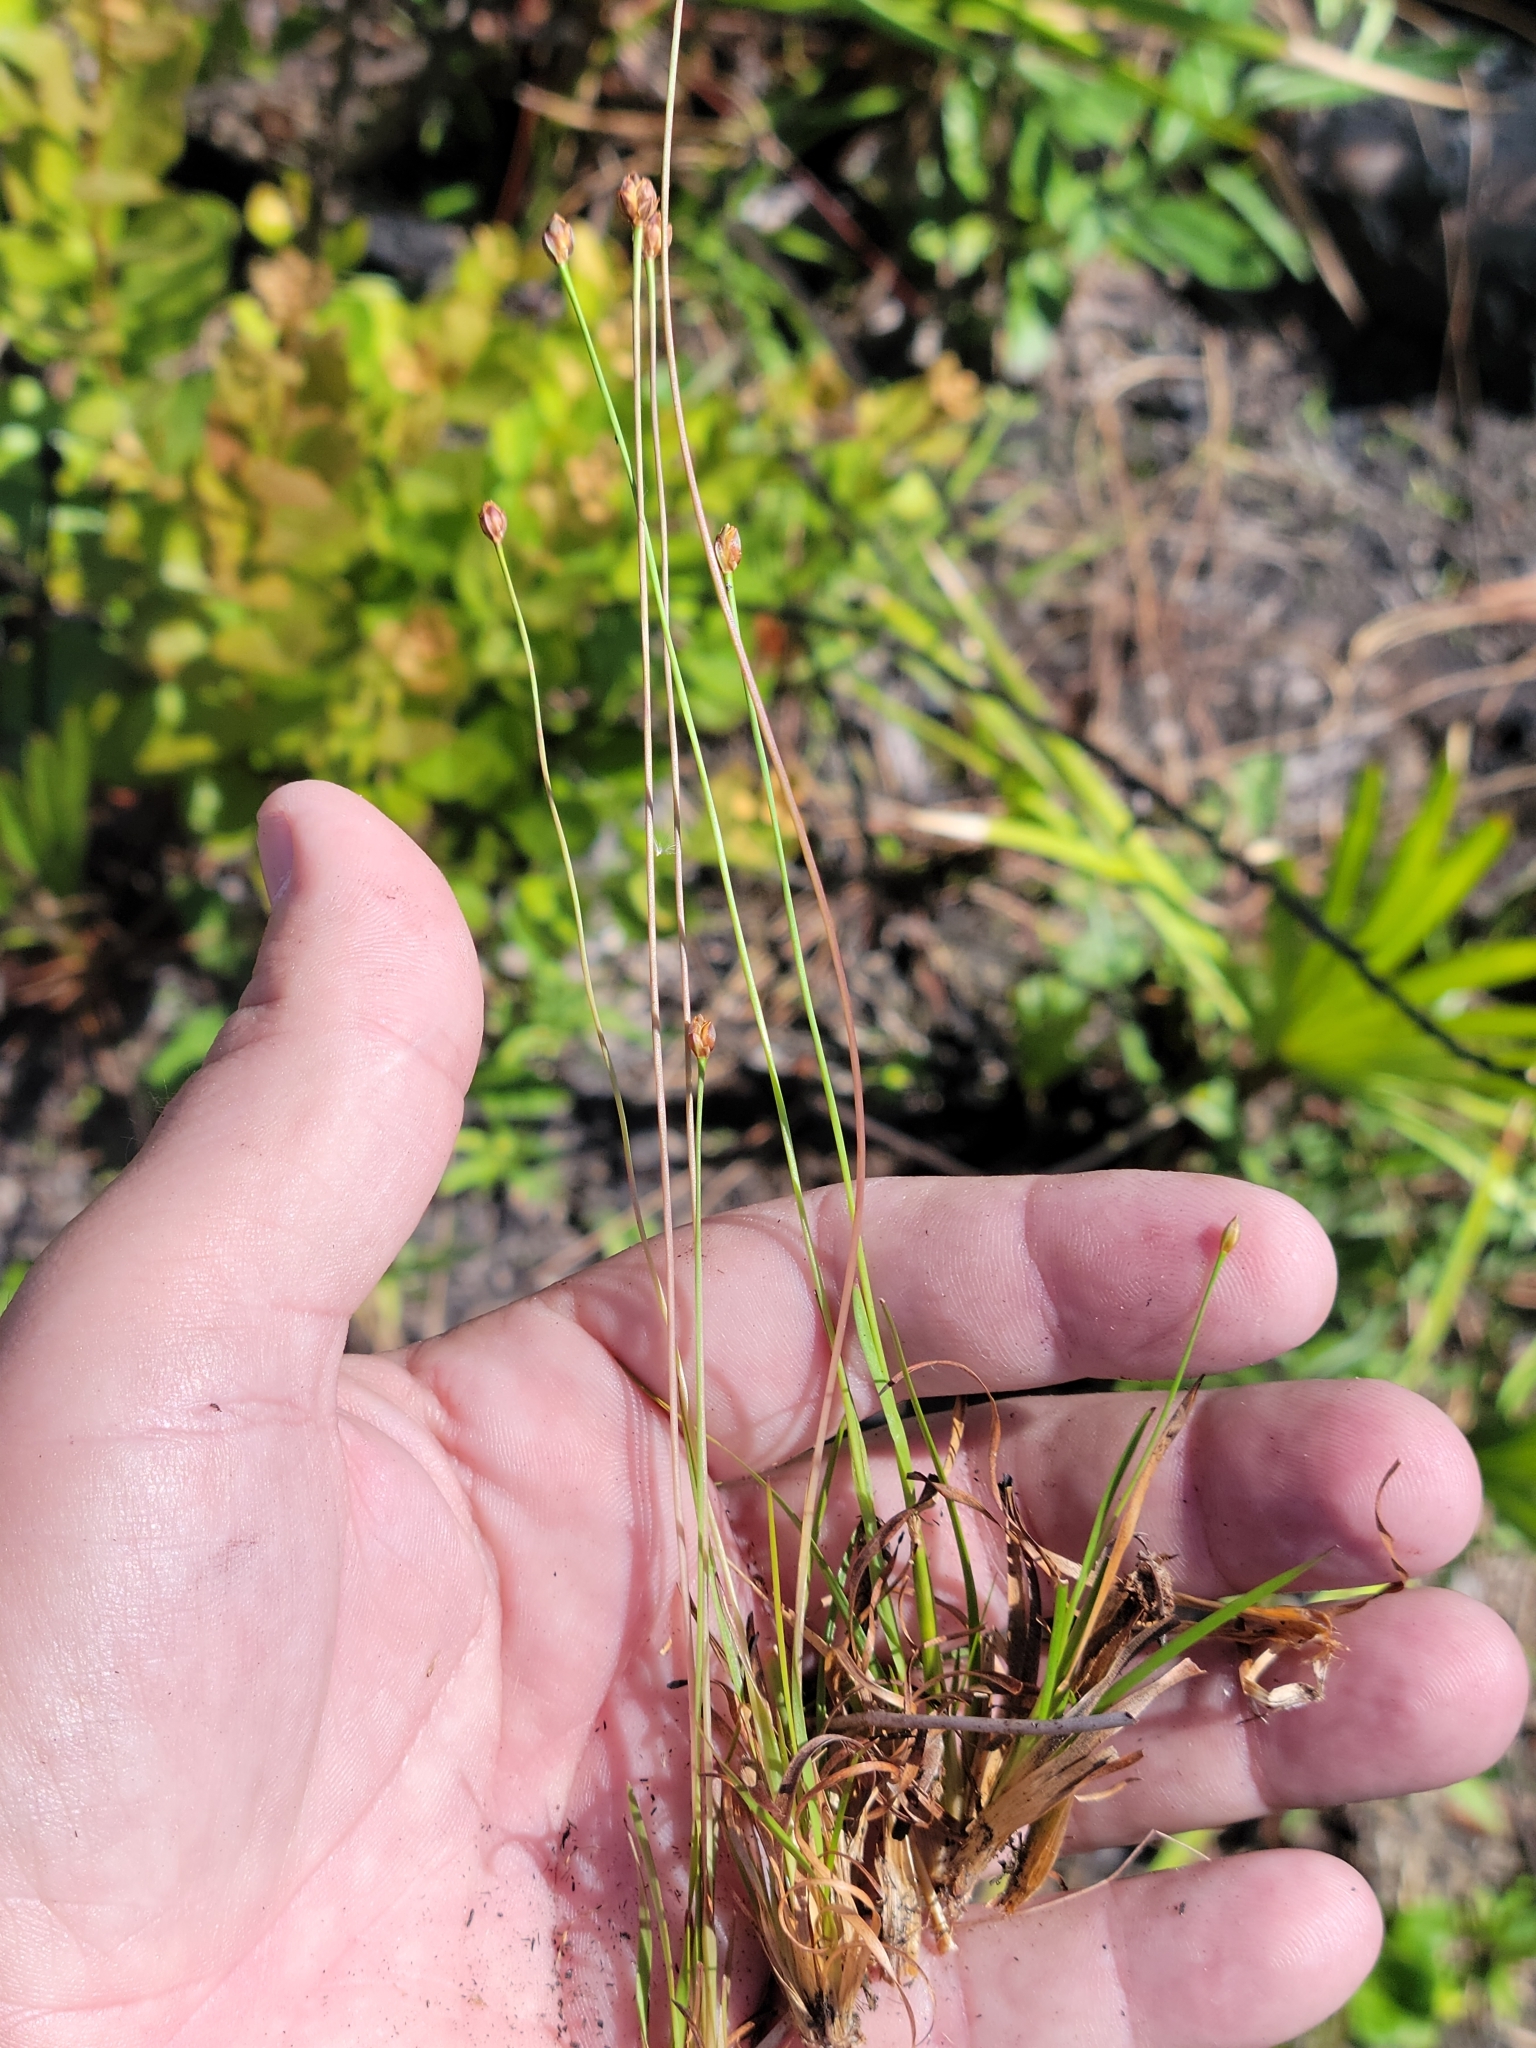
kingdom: Plantae
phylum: Tracheophyta
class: Liliopsida
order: Poales
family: Xyridaceae
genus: Xyris
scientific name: Xyris brevifolia
